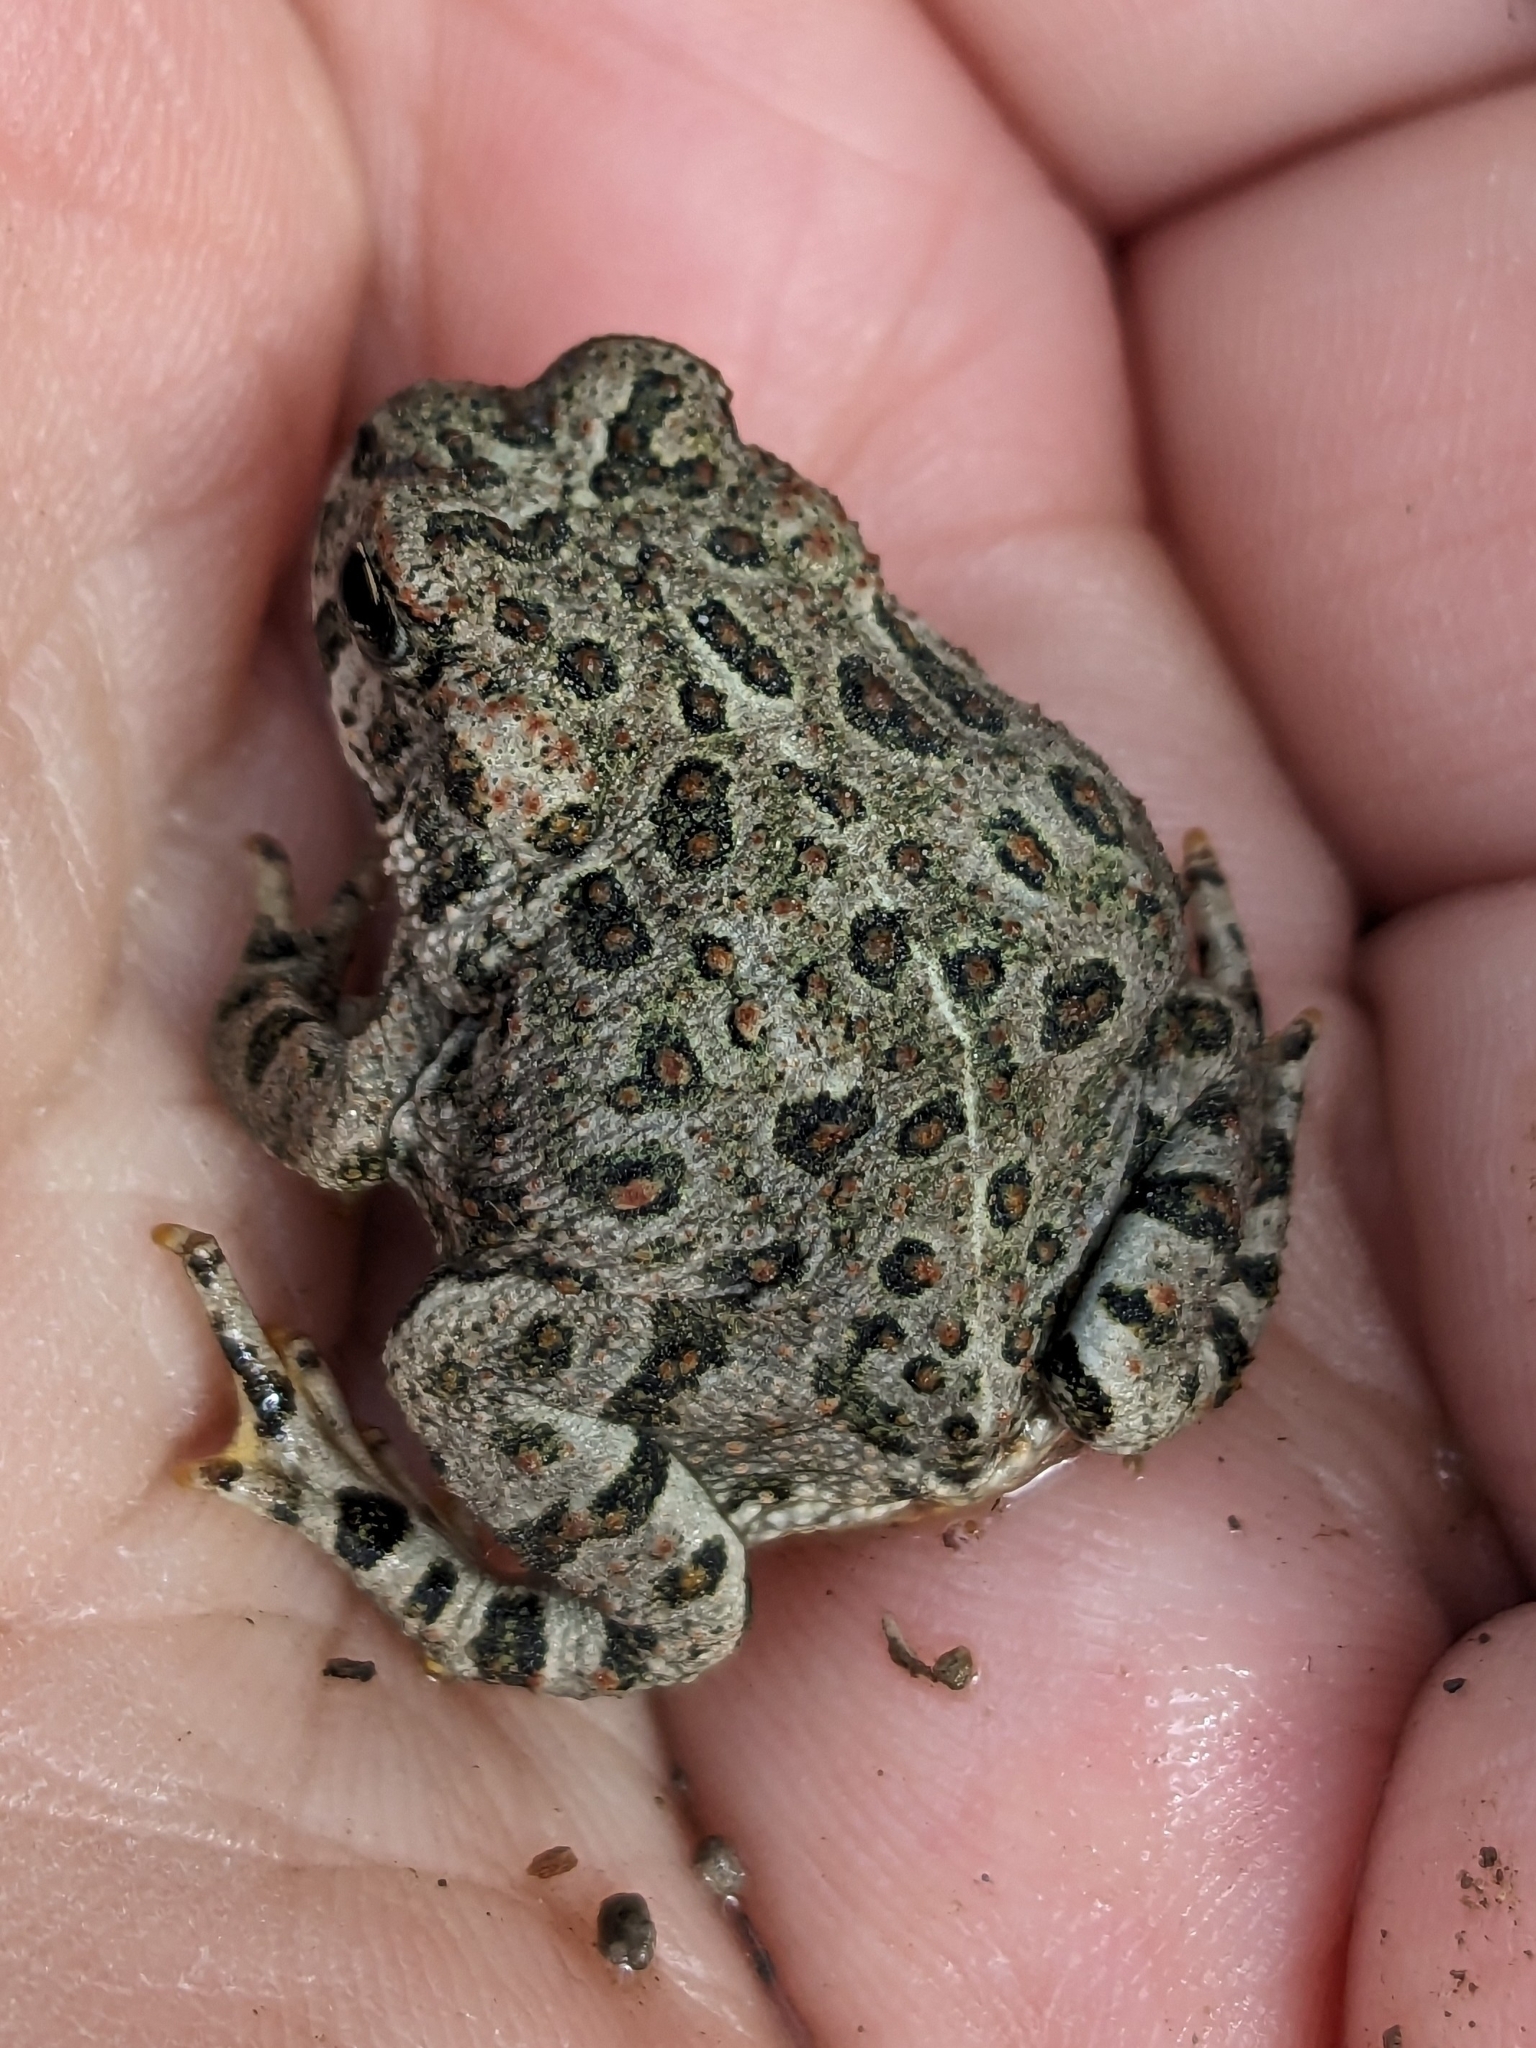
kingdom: Animalia
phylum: Chordata
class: Amphibia
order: Anura
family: Bufonidae
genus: Anaxyrus
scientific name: Anaxyrus boreas
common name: Western toad
